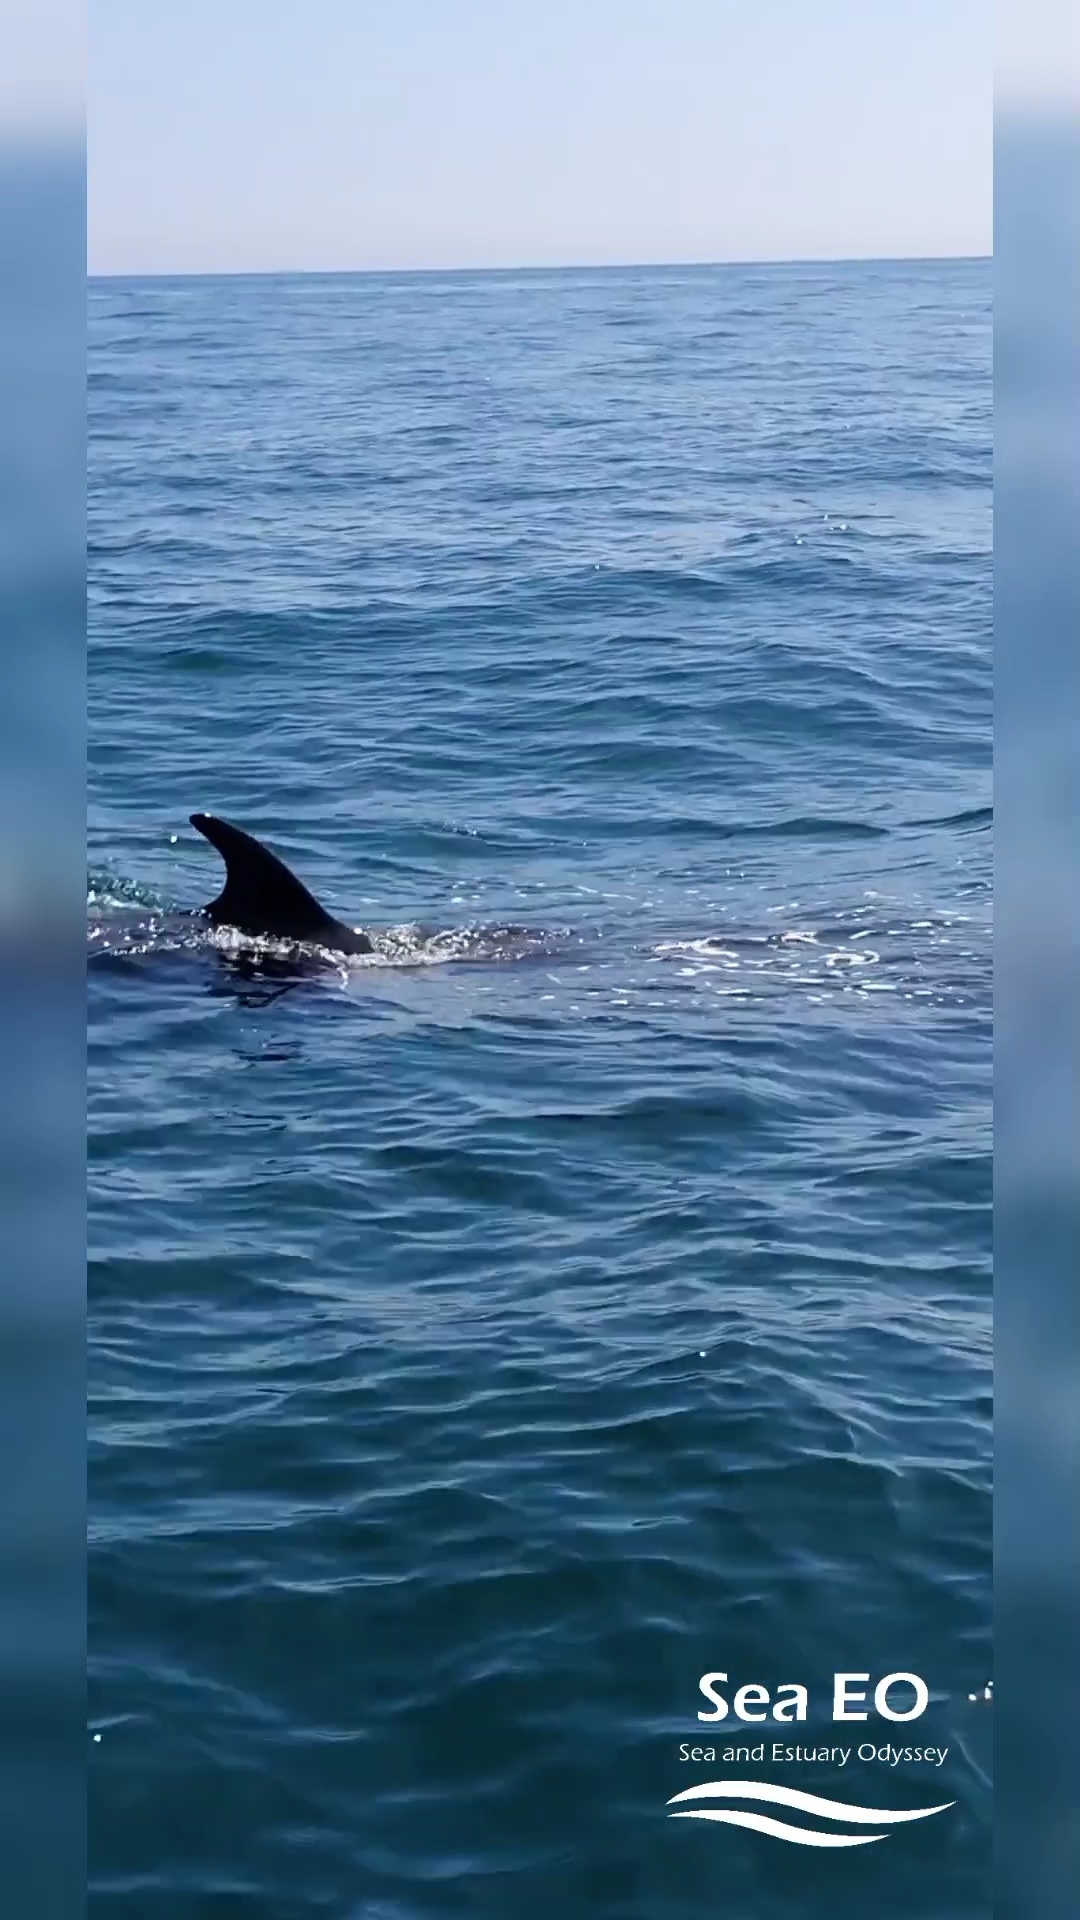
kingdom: Animalia
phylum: Chordata
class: Mammalia
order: Cetacea
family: Balaenopteridae
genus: Balaenoptera
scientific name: Balaenoptera acutorostrata
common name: Common minke whale
